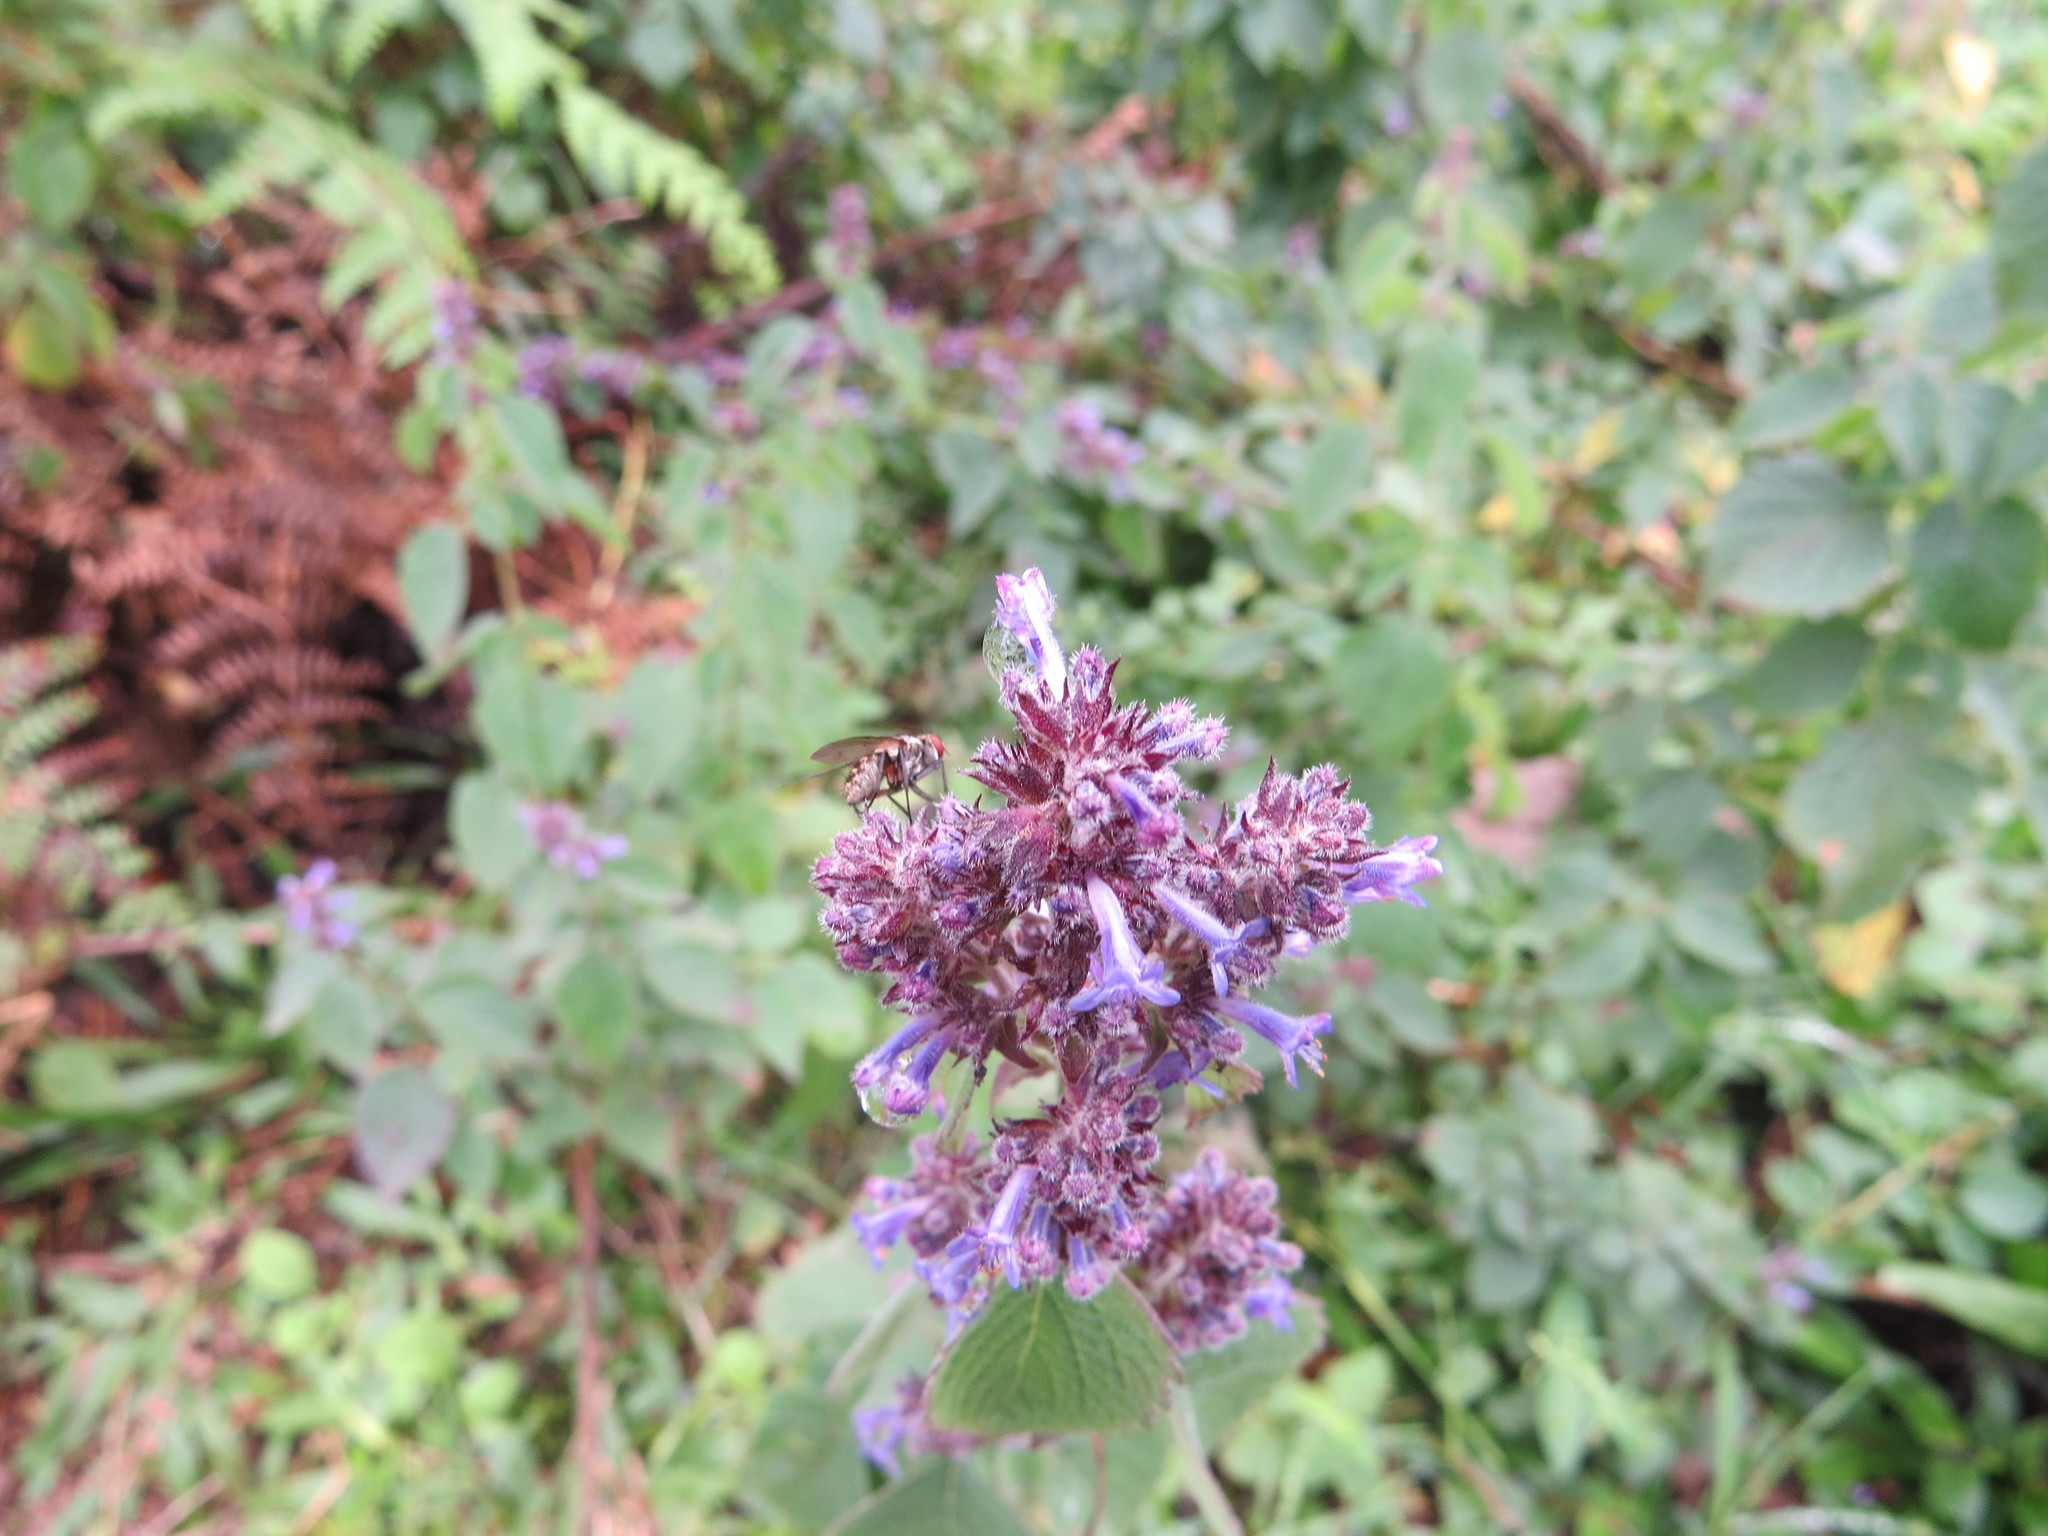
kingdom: Plantae
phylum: Tracheophyta
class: Magnoliopsida
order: Lamiales
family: Lamiaceae
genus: Cantinoa
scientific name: Cantinoa mutabilis
